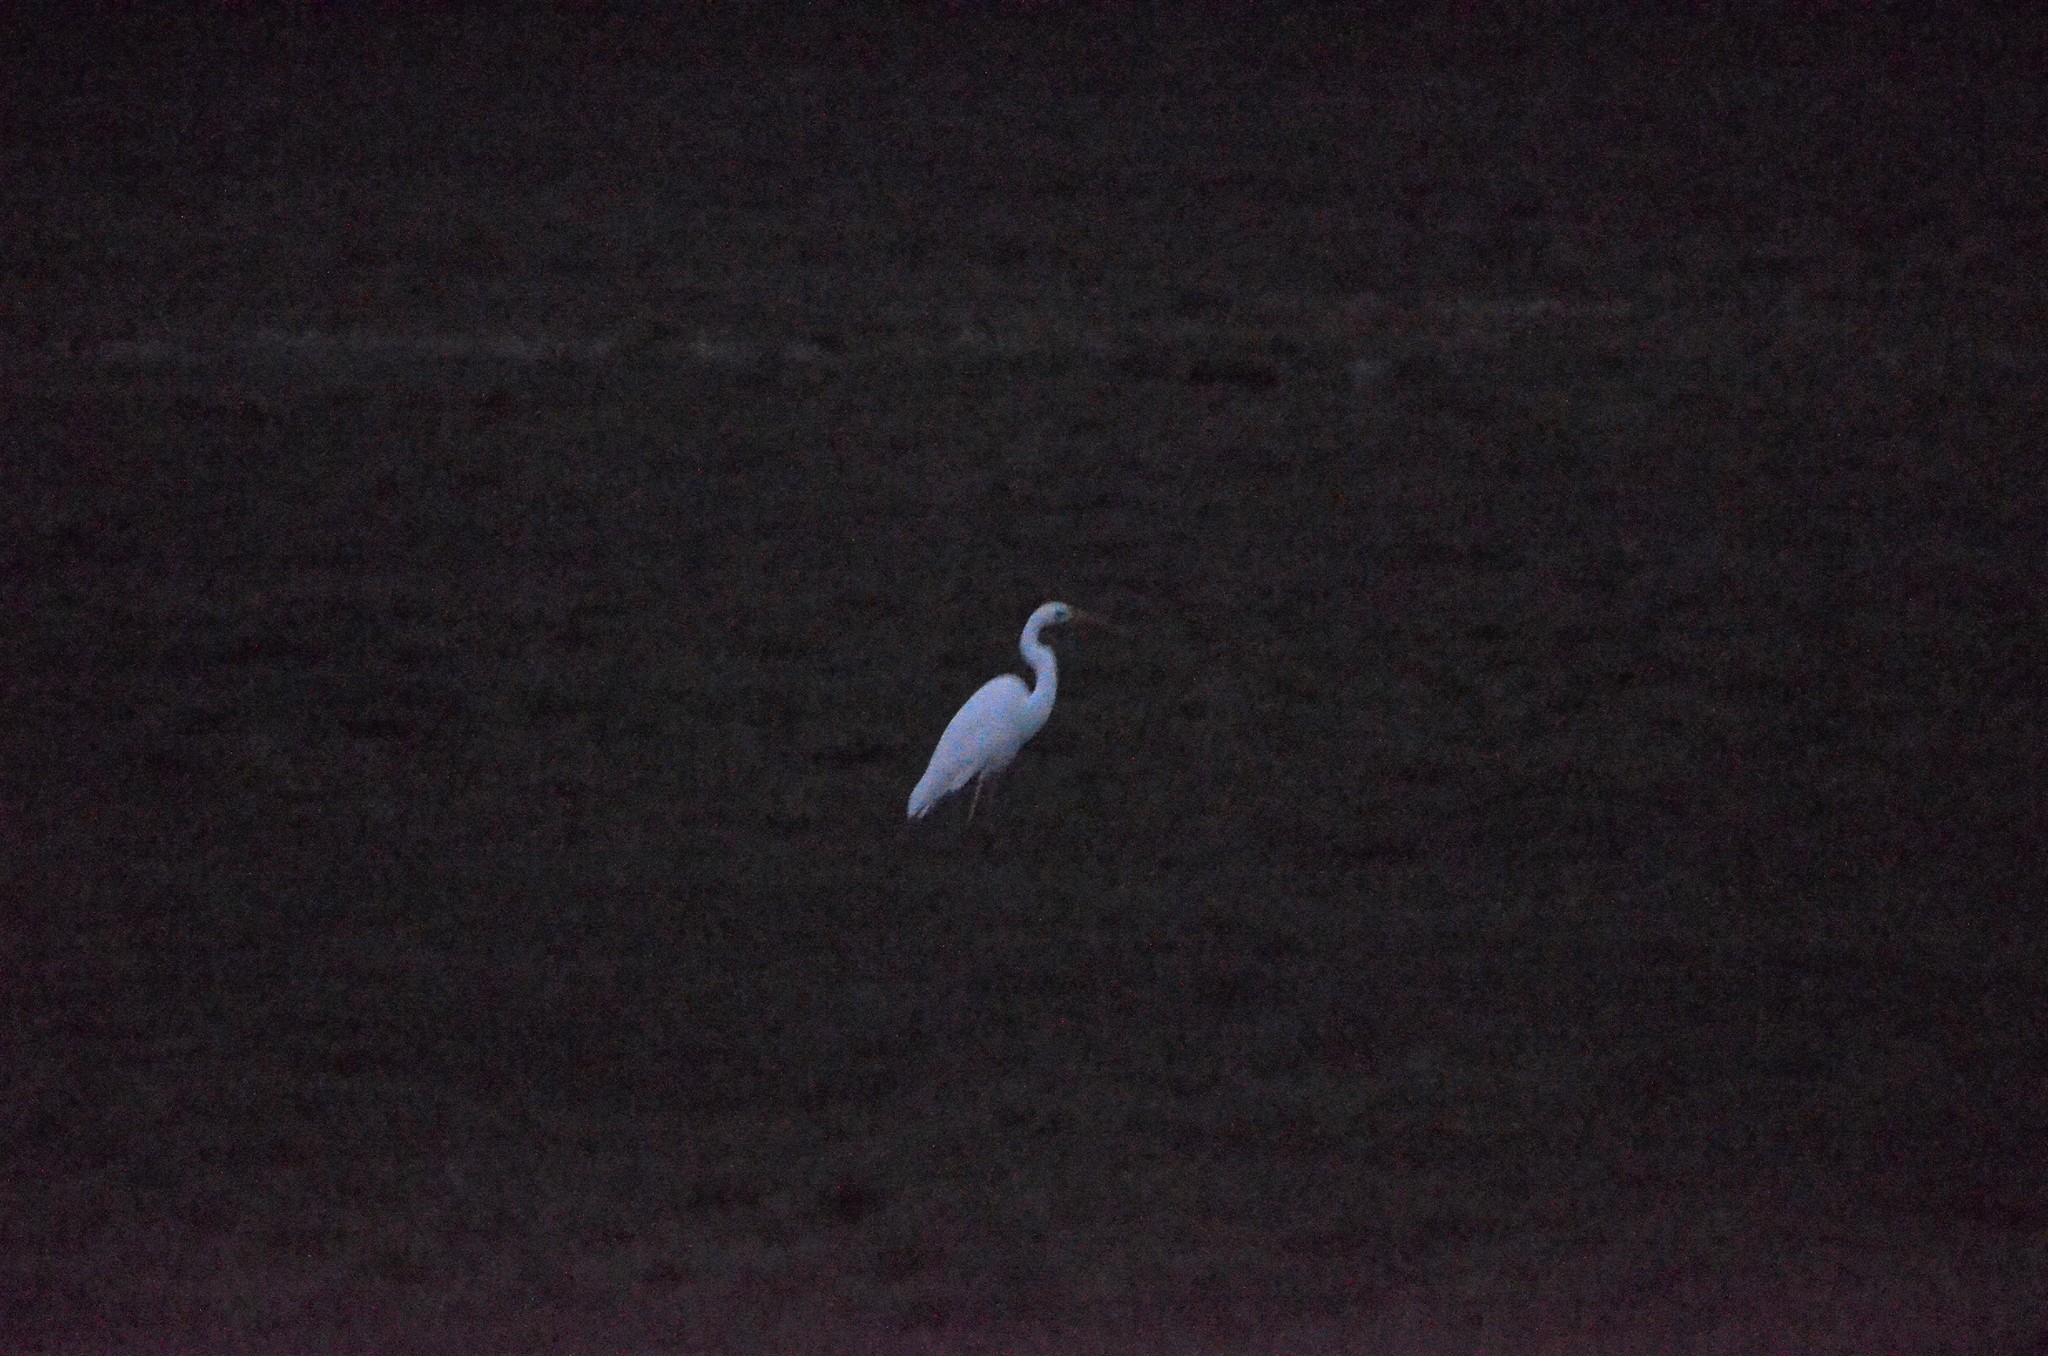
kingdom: Animalia
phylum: Chordata
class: Aves
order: Pelecaniformes
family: Ardeidae
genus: Ardea
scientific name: Ardea alba
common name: Great egret
